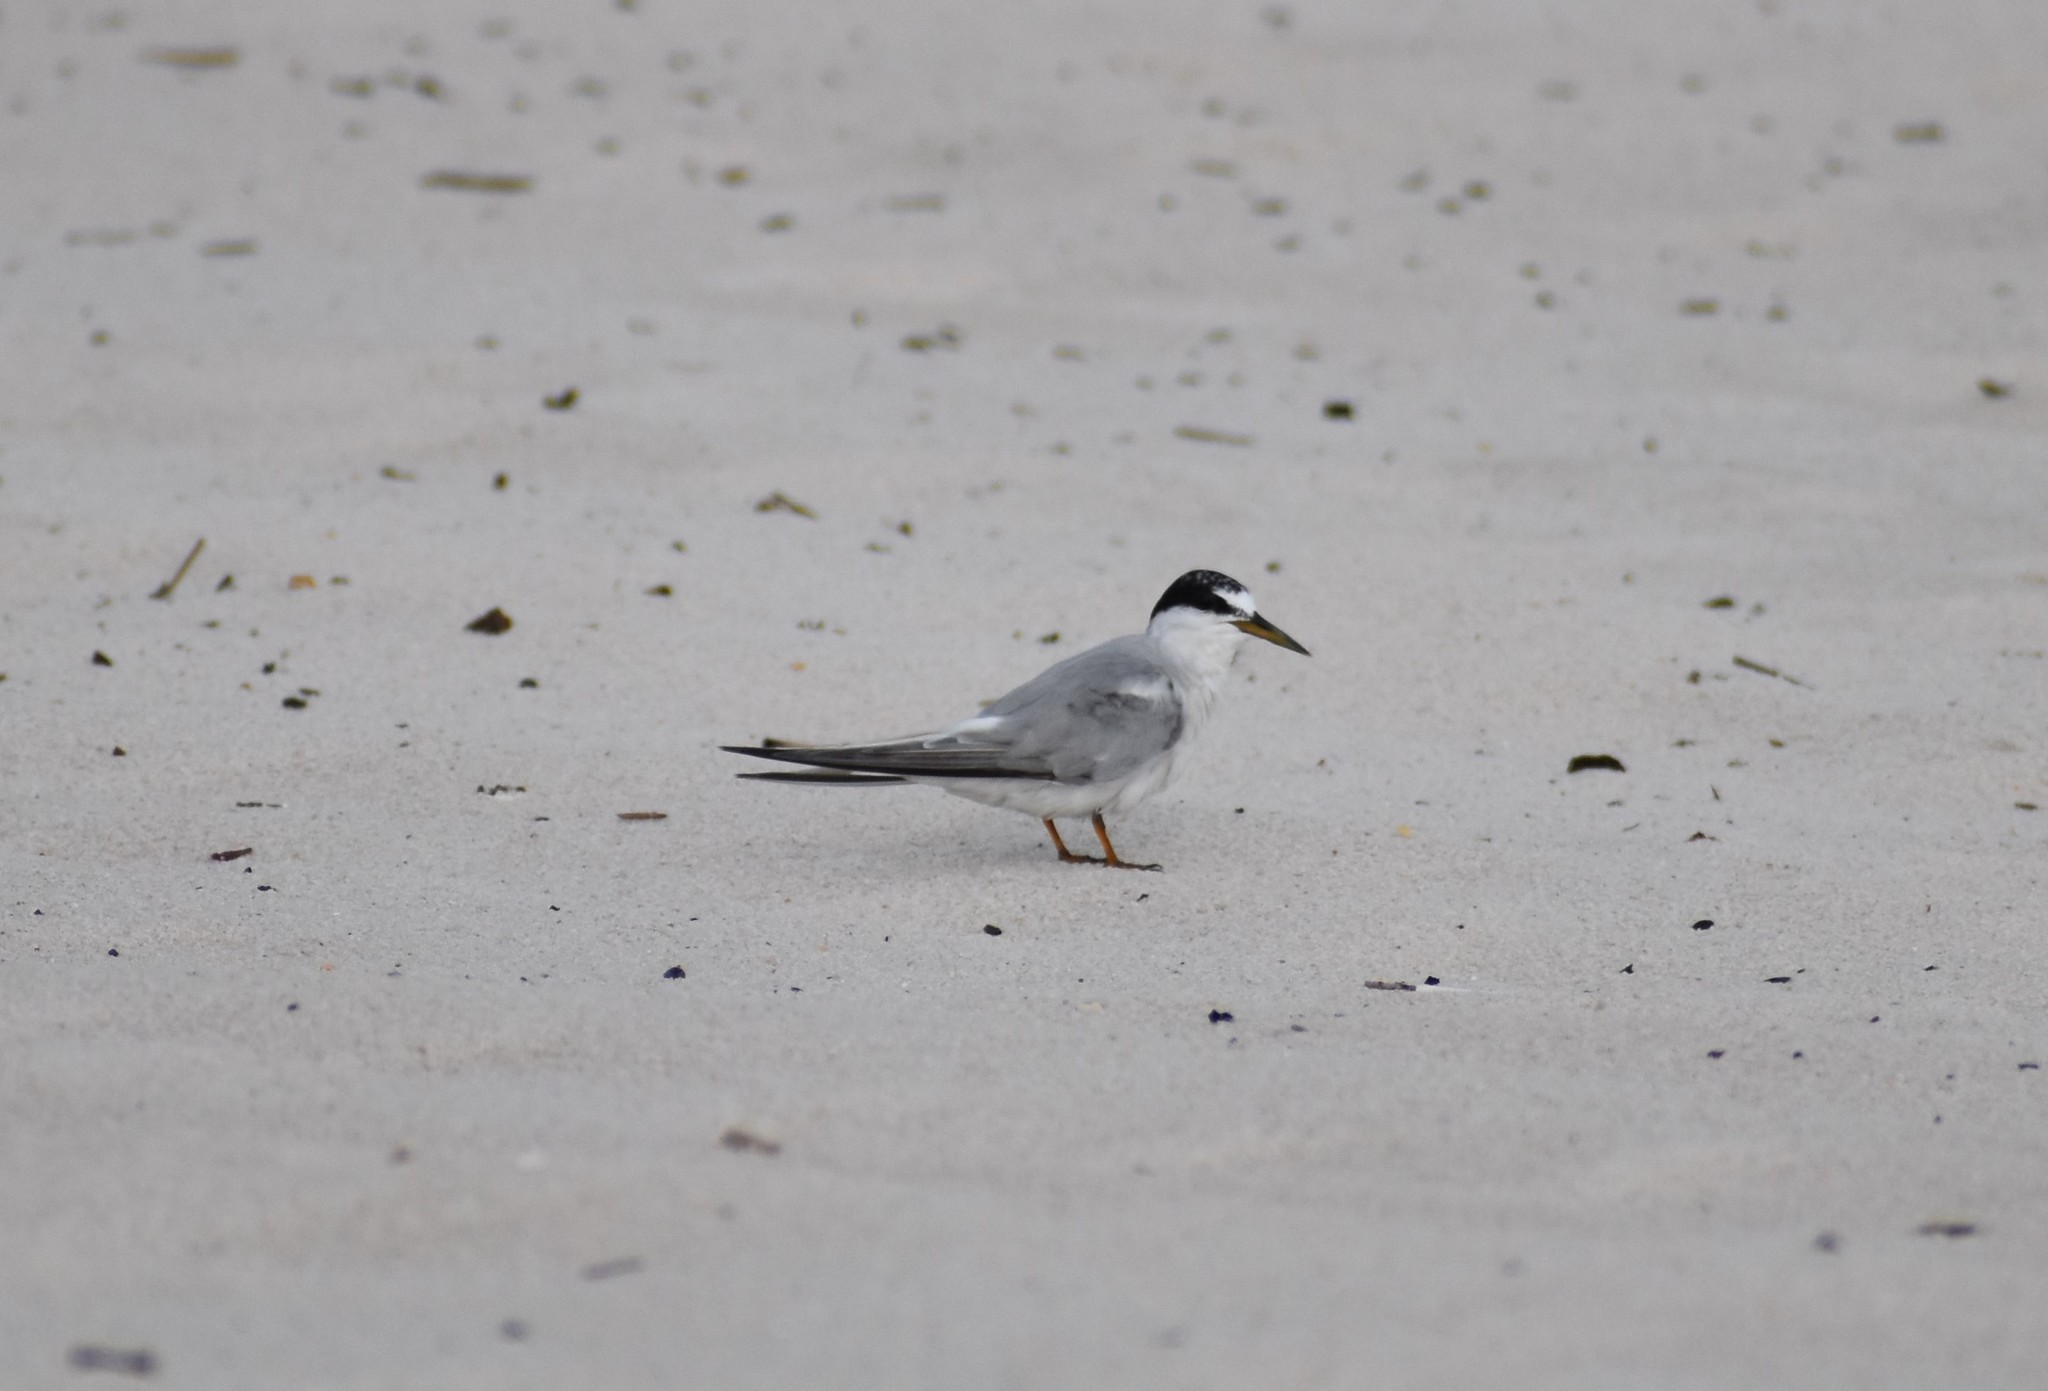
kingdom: Animalia
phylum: Chordata
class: Aves
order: Charadriiformes
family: Laridae
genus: Sternula
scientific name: Sternula antillarum
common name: Least tern
